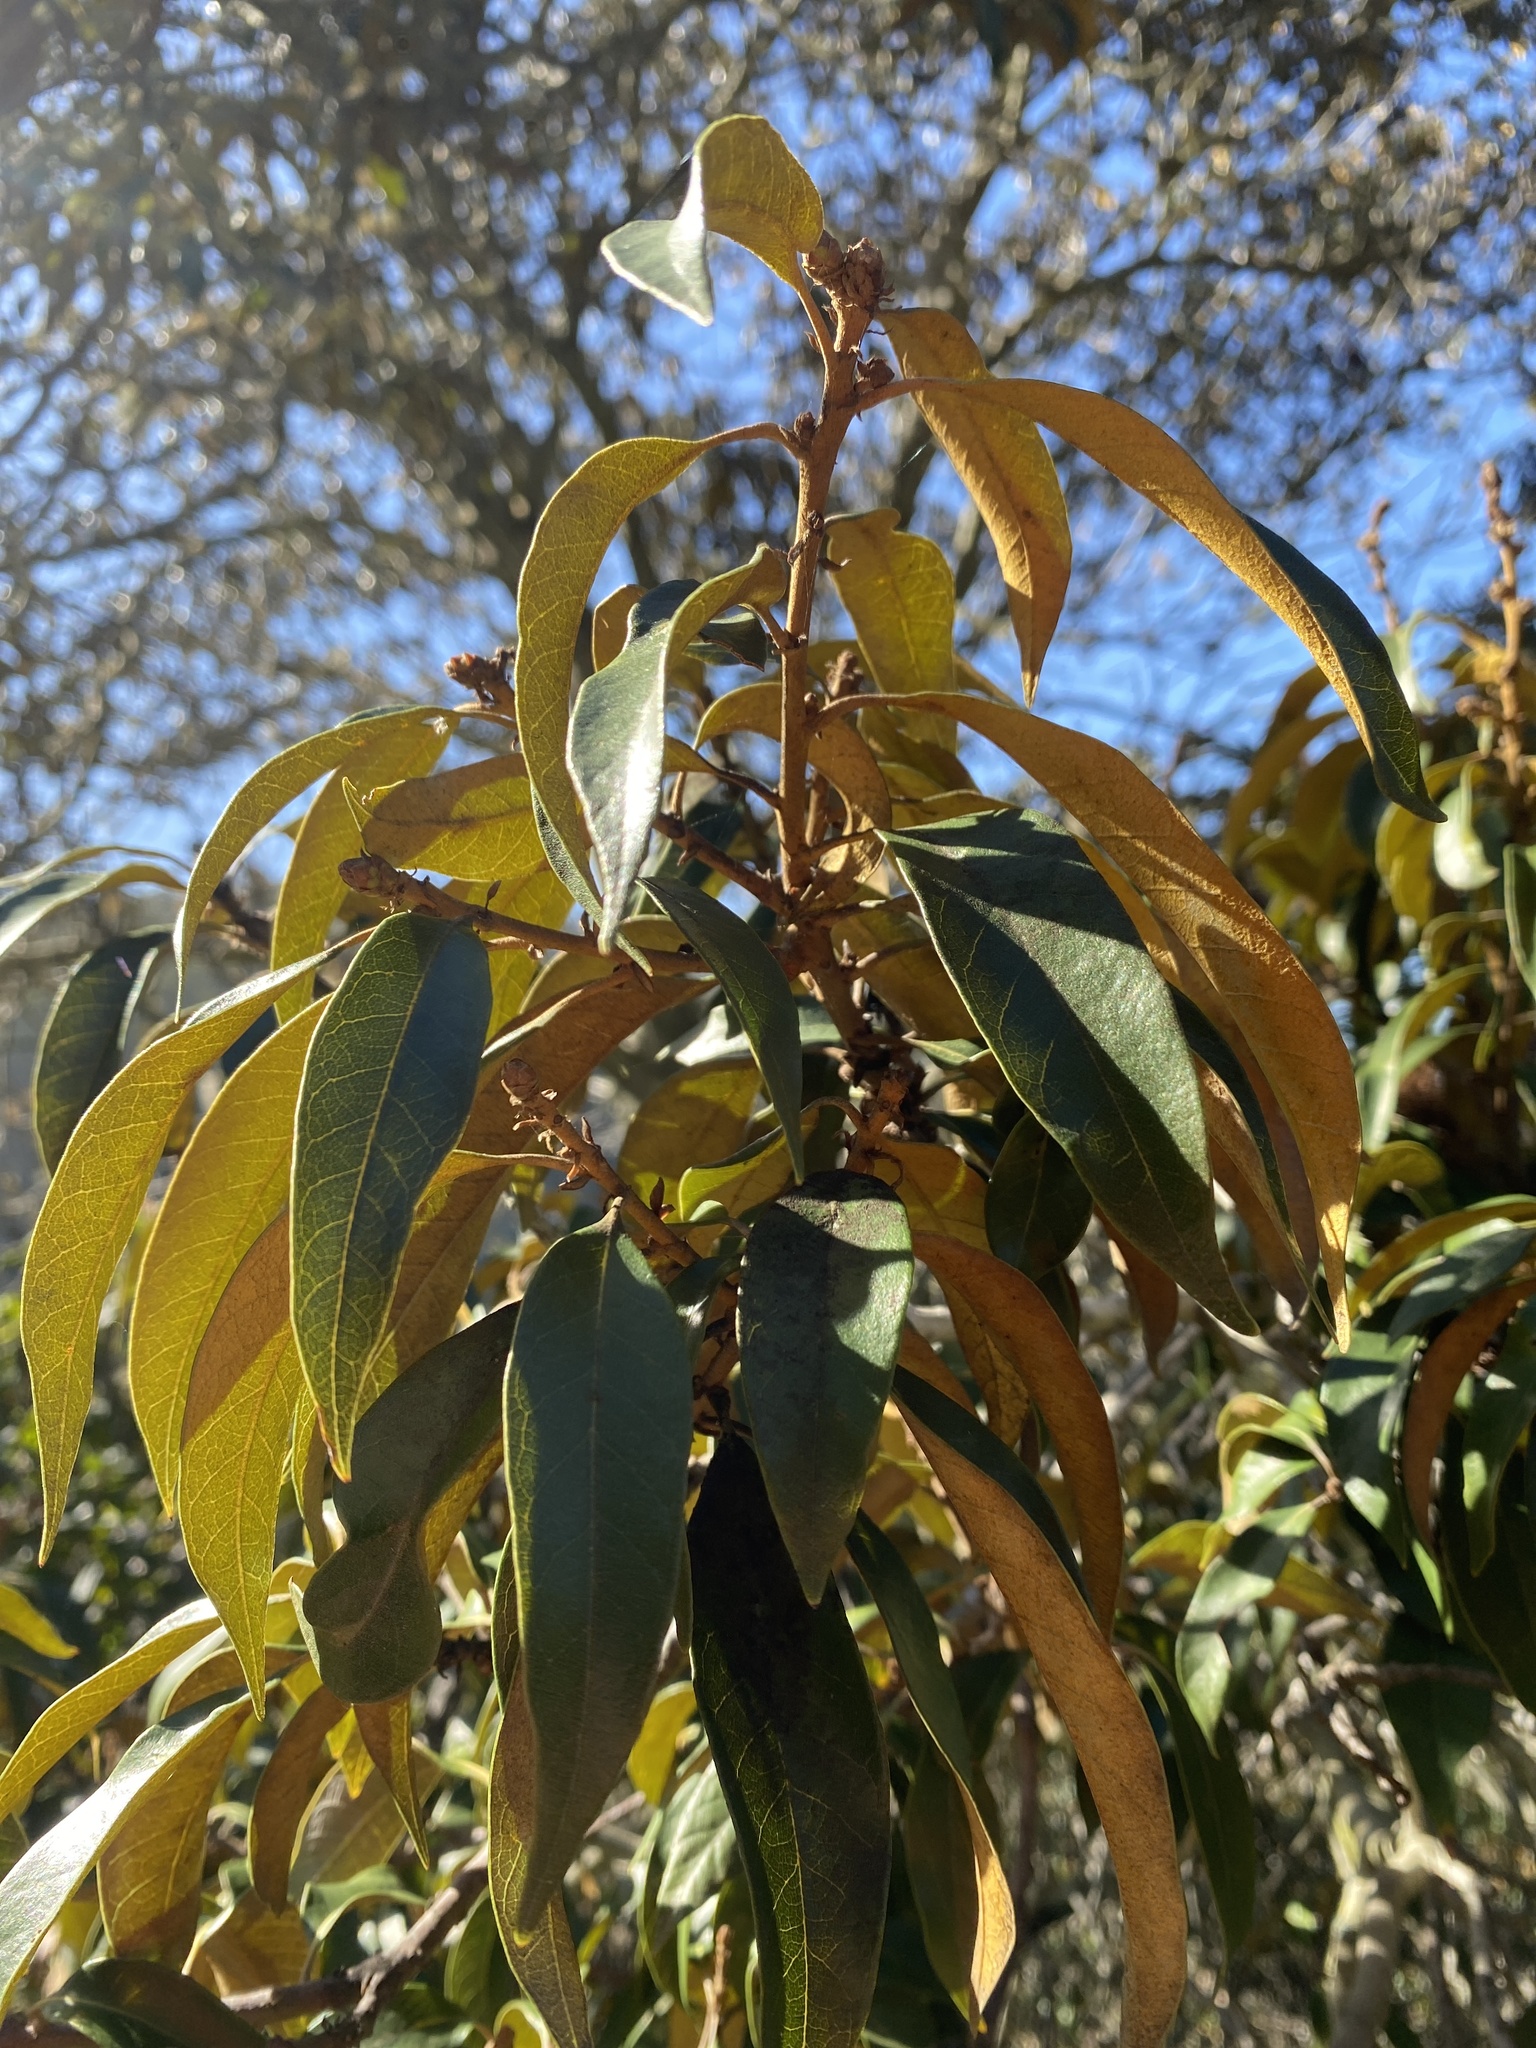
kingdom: Plantae
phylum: Tracheophyta
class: Magnoliopsida
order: Fagales
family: Fagaceae
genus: Chrysolepis
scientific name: Chrysolepis chrysophylla
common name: Giant chinquapin
